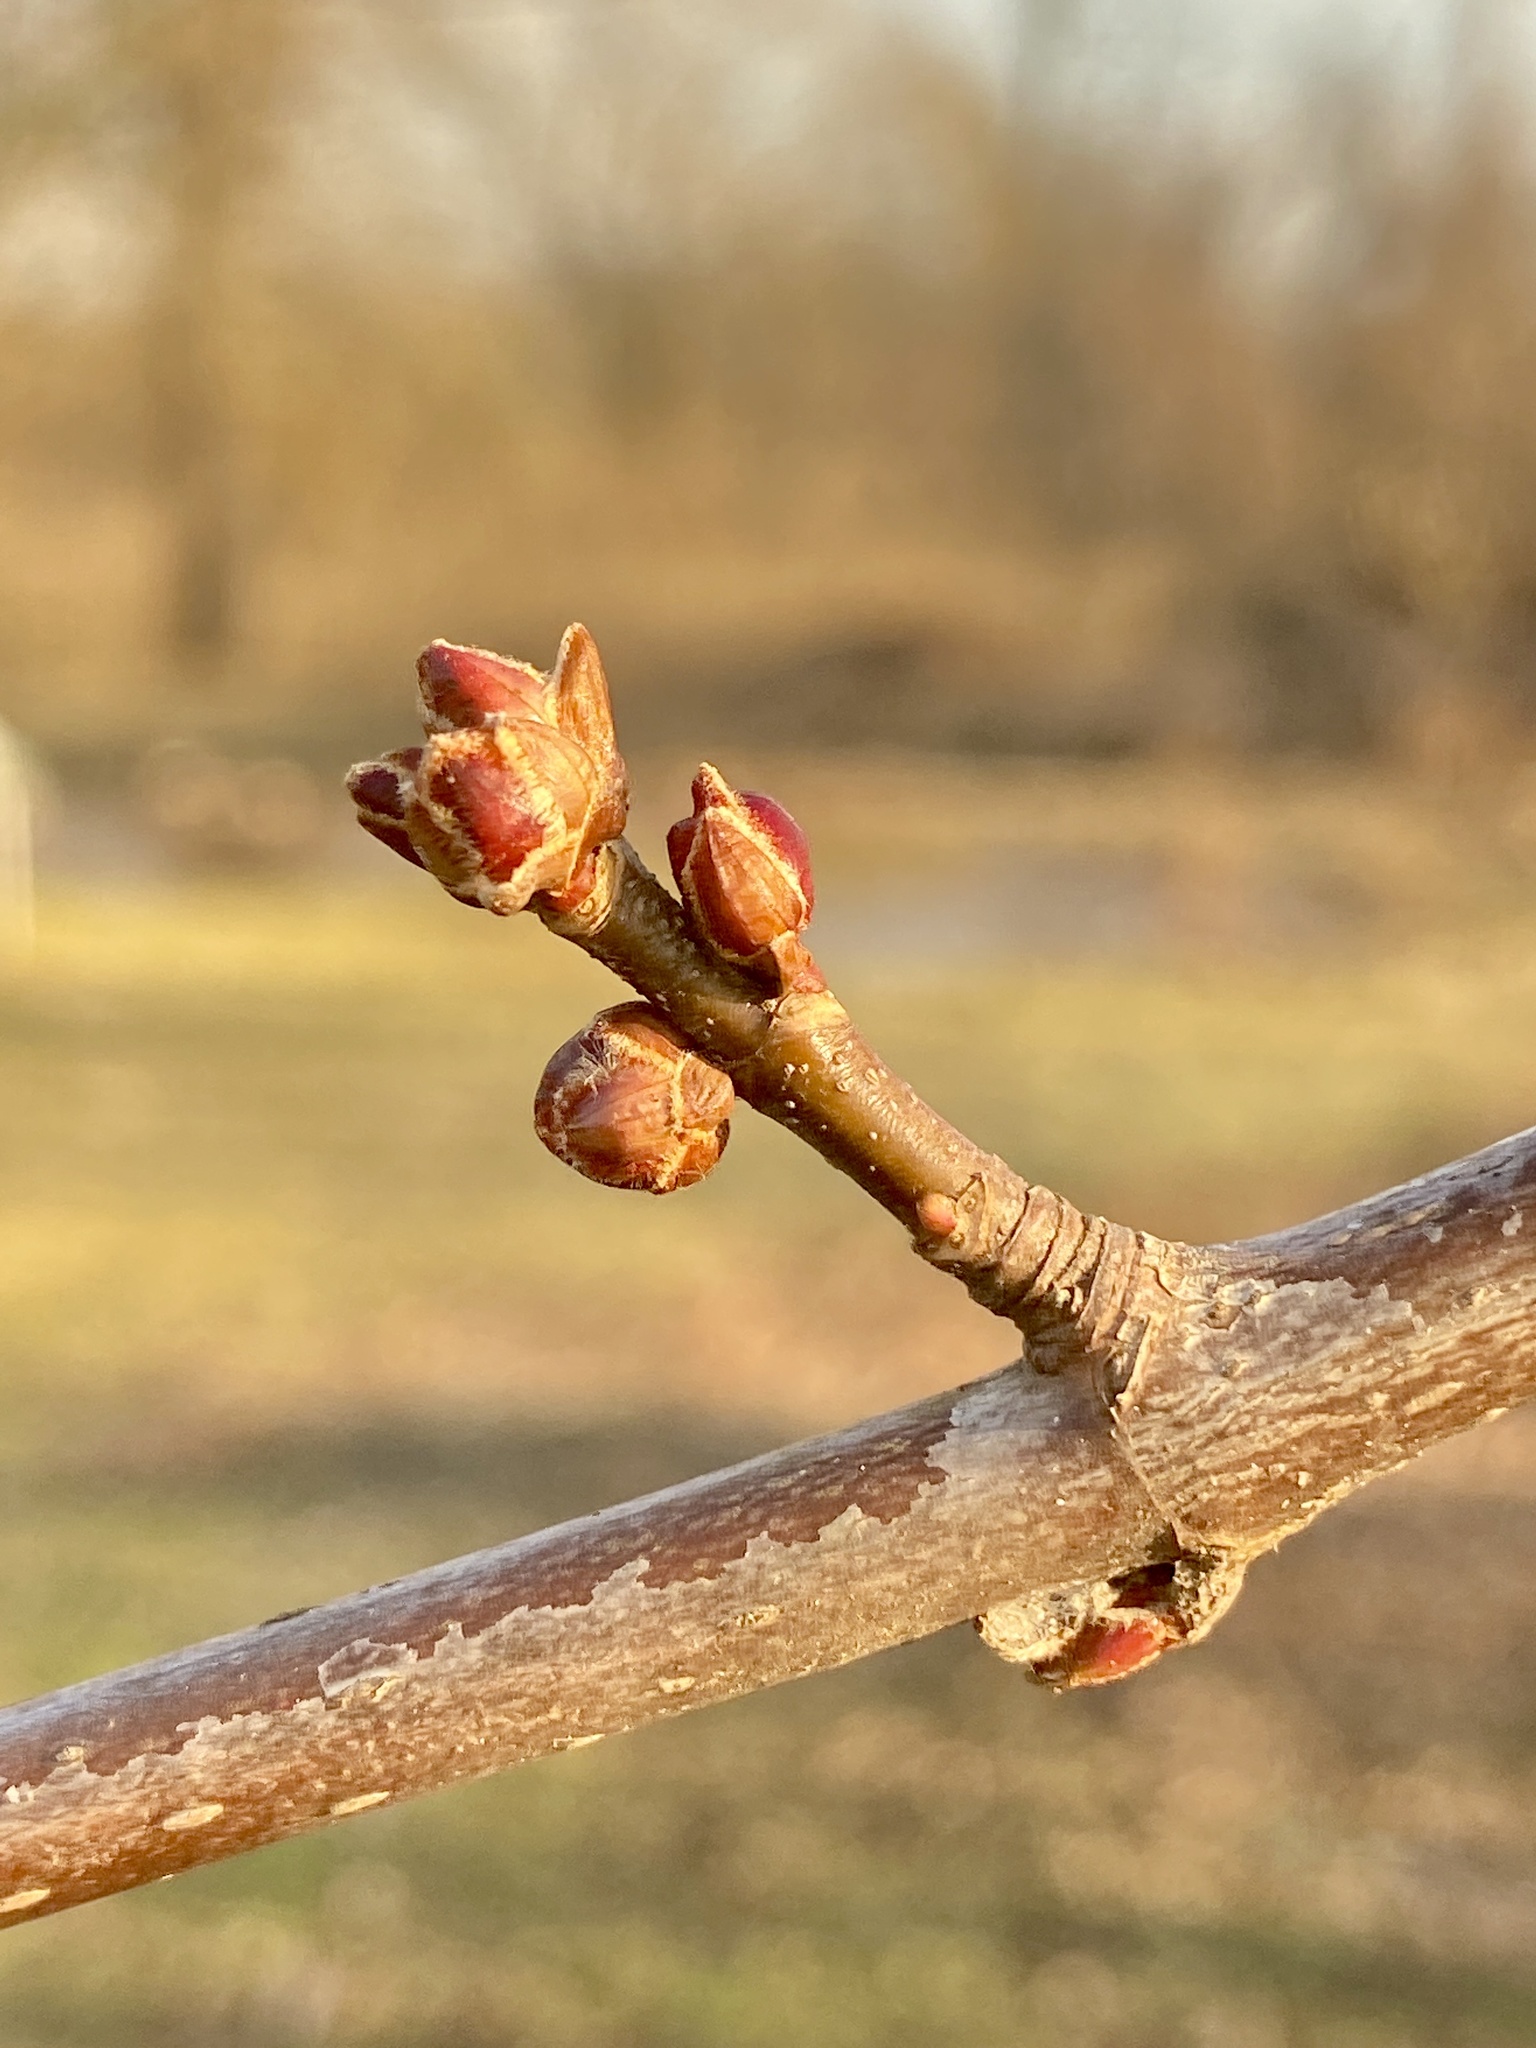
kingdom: Plantae
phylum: Tracheophyta
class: Magnoliopsida
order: Sapindales
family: Sapindaceae
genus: Acer
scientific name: Acer saccharinum
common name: Silver maple
